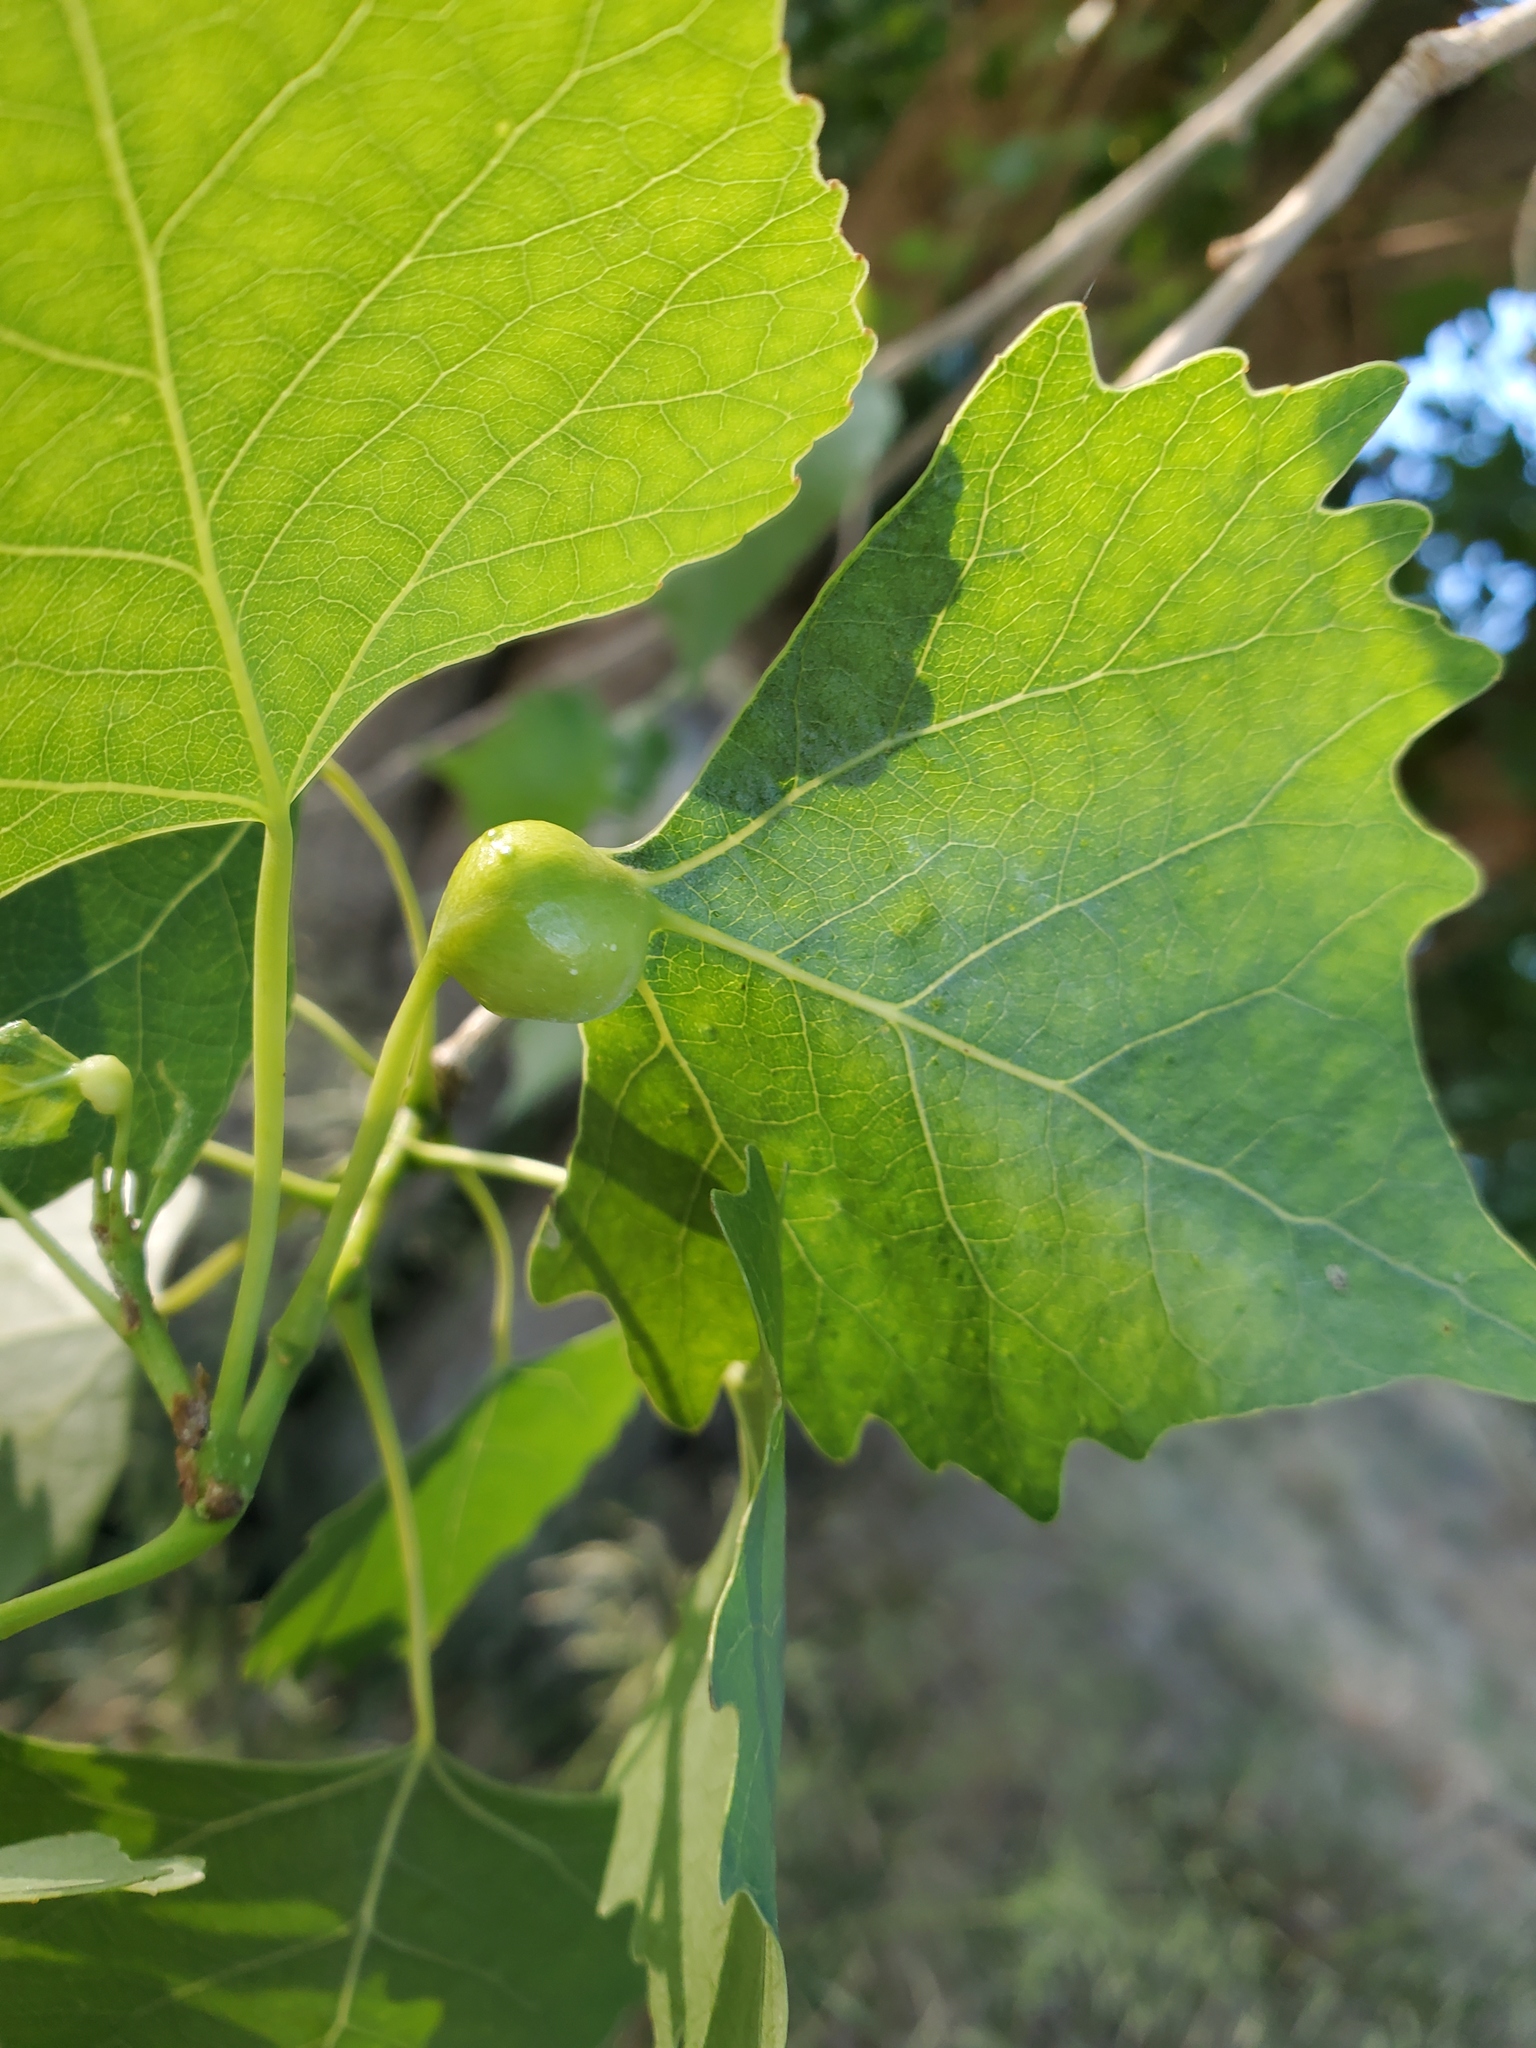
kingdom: Animalia
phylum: Arthropoda
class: Insecta
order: Hemiptera
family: Aphididae
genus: Pemphigus
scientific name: Pemphigus obesinymphae
